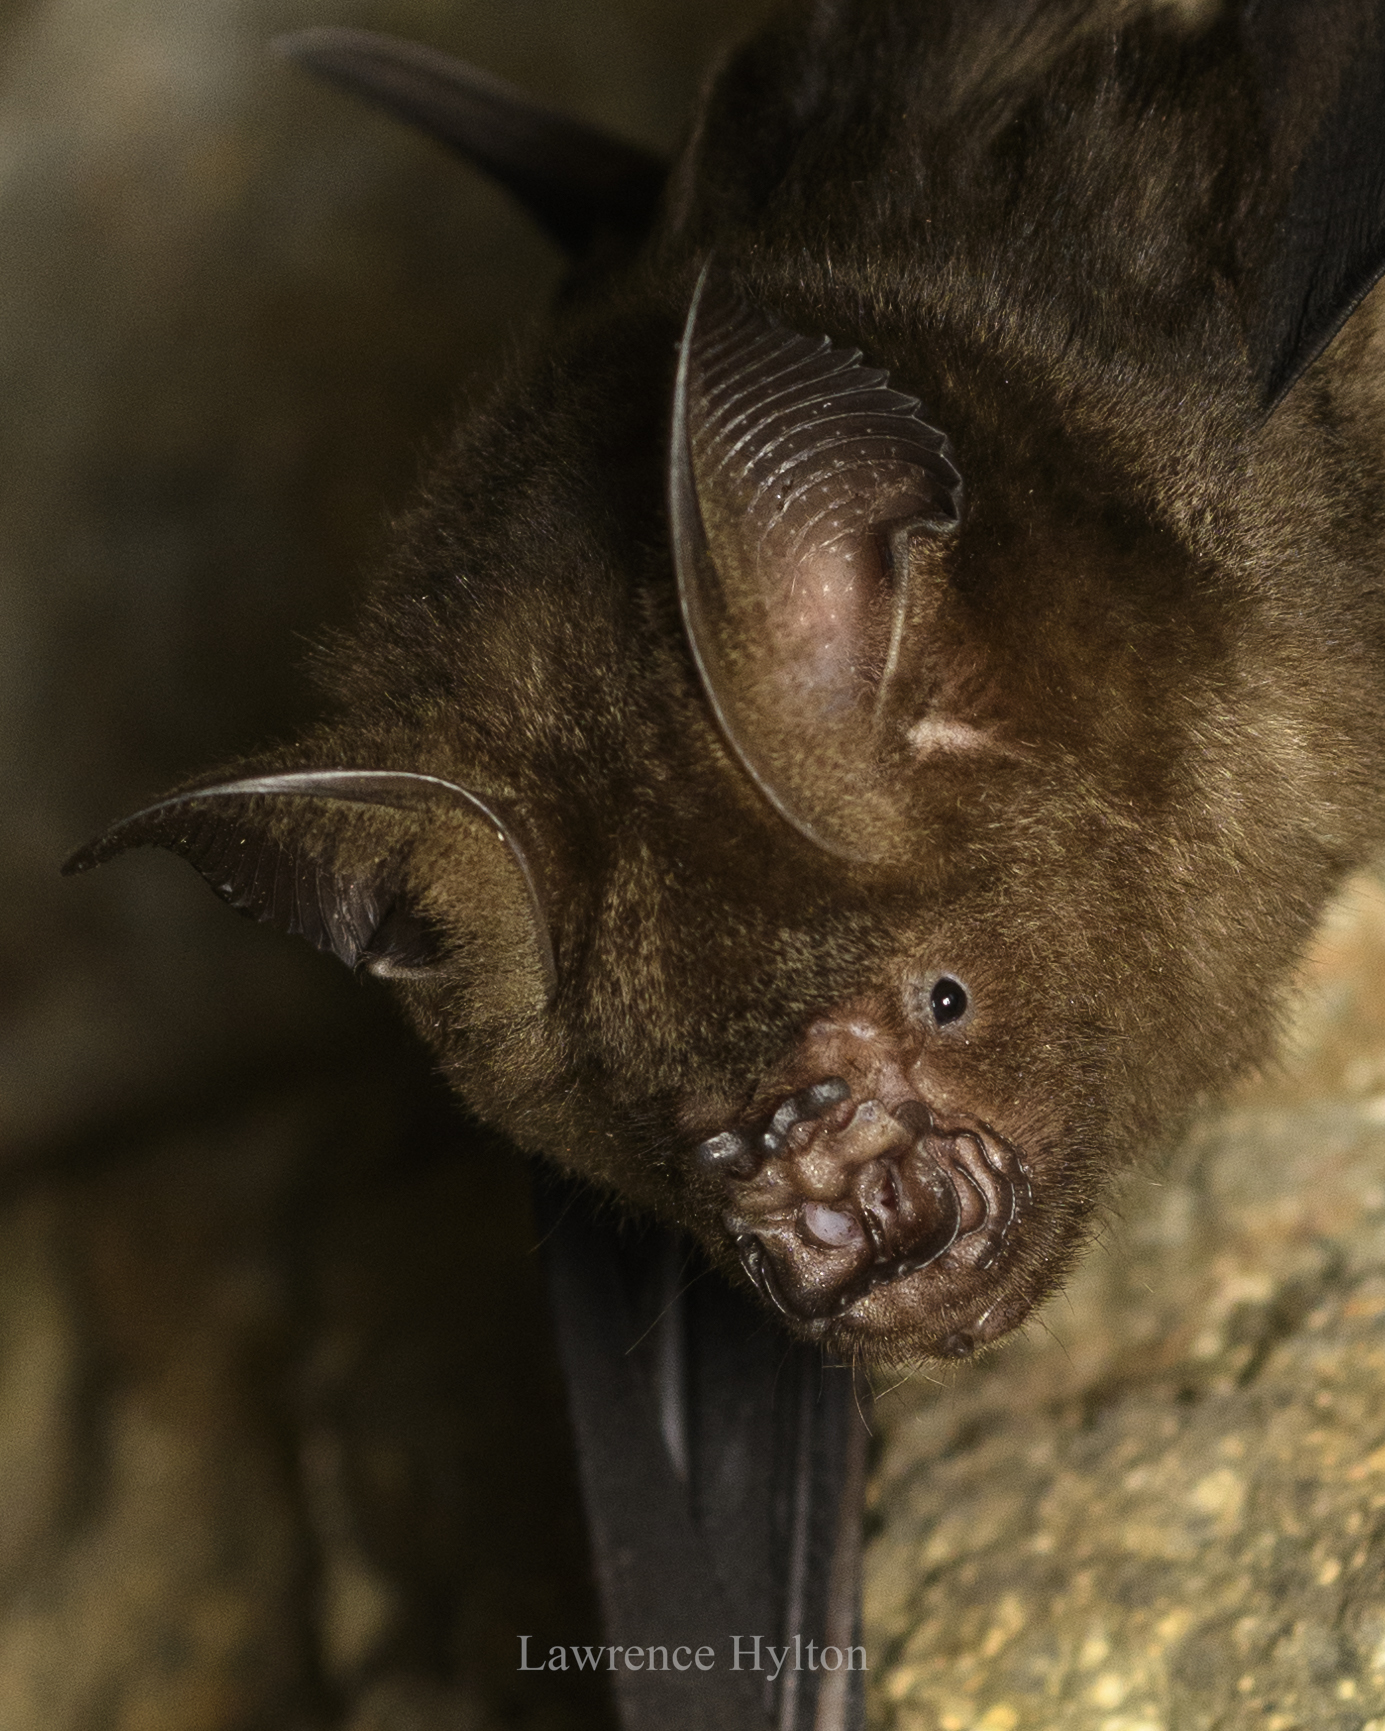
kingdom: Animalia
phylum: Chordata
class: Mammalia
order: Chiroptera
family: Hipposideridae
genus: Hipposideros
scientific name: Hipposideros armiger
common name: Great leaf-nosed bat
